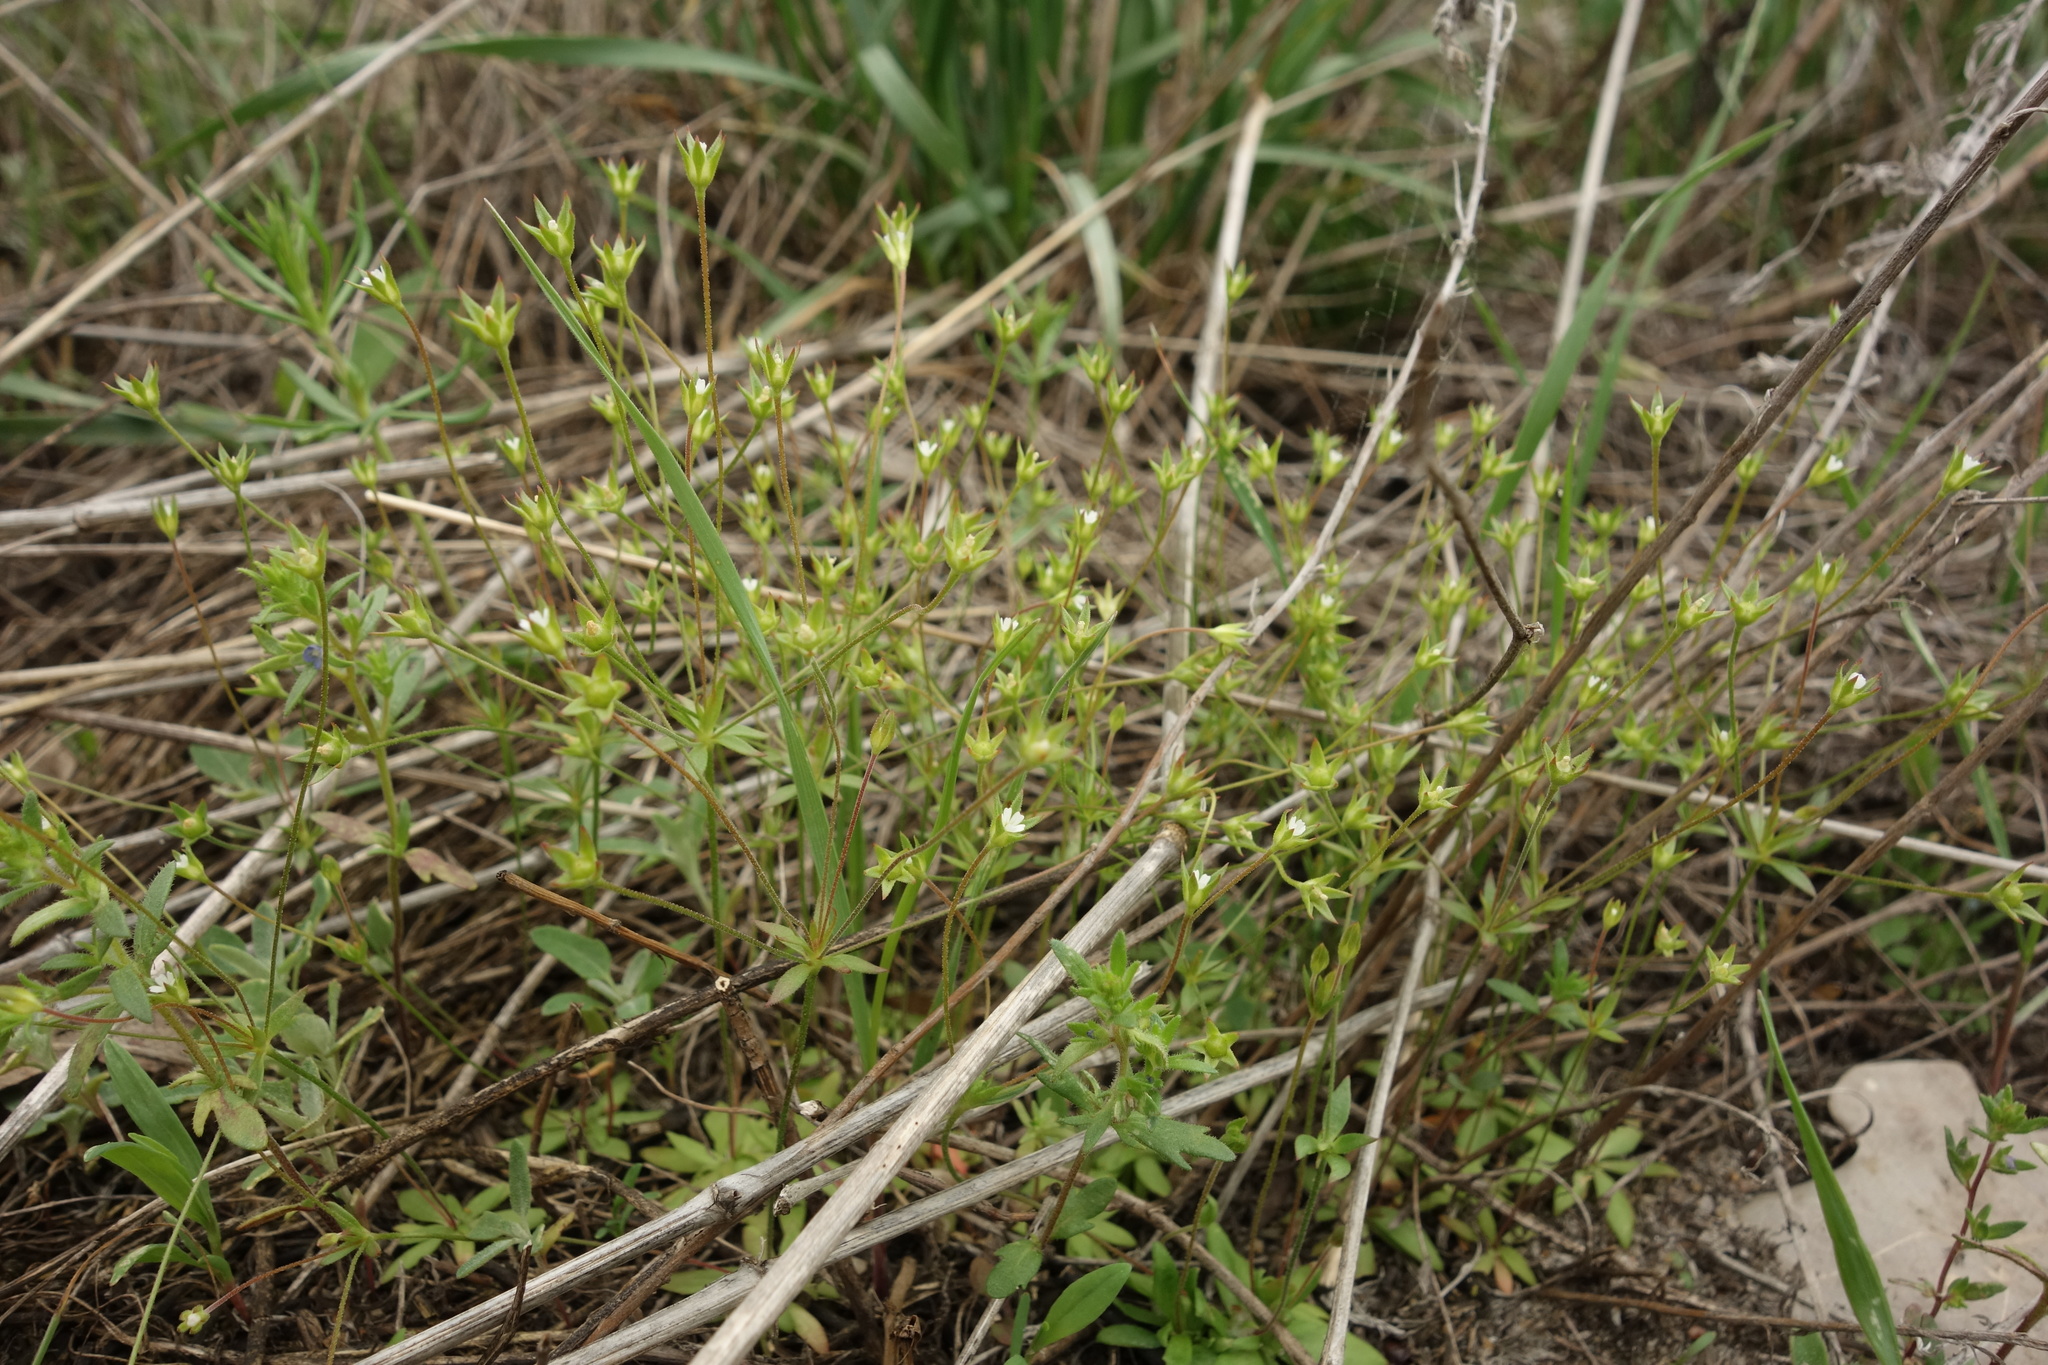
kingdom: Plantae
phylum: Tracheophyta
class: Magnoliopsida
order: Ericales
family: Primulaceae
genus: Androsace
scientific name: Androsace elongata
